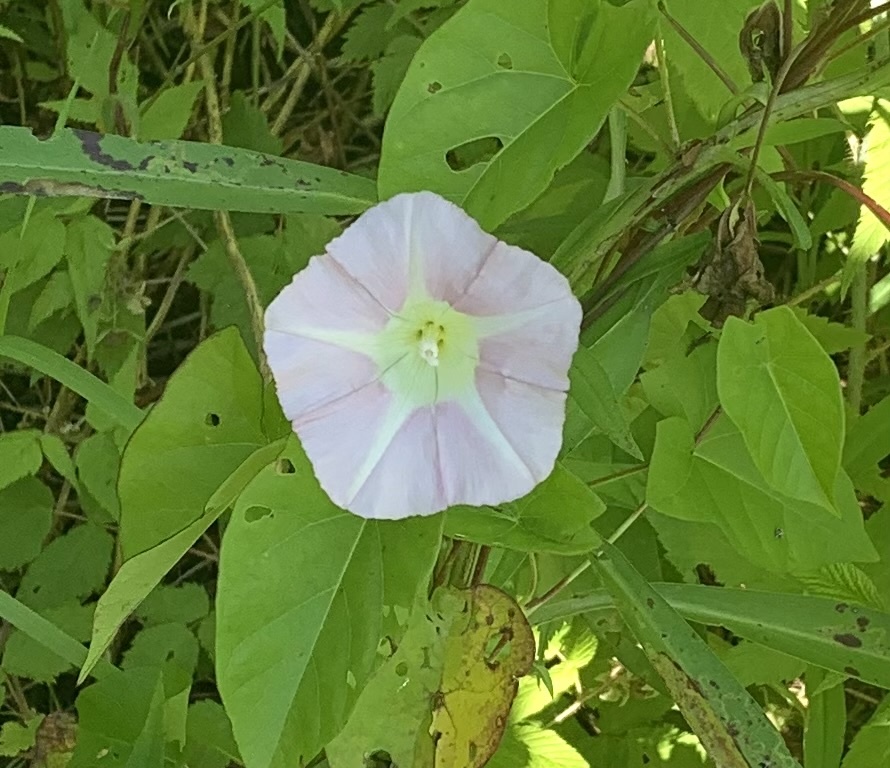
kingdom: Plantae
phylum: Tracheophyta
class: Magnoliopsida
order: Solanales
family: Convolvulaceae
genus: Calystegia
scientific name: Calystegia sepium
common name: Hedge bindweed
